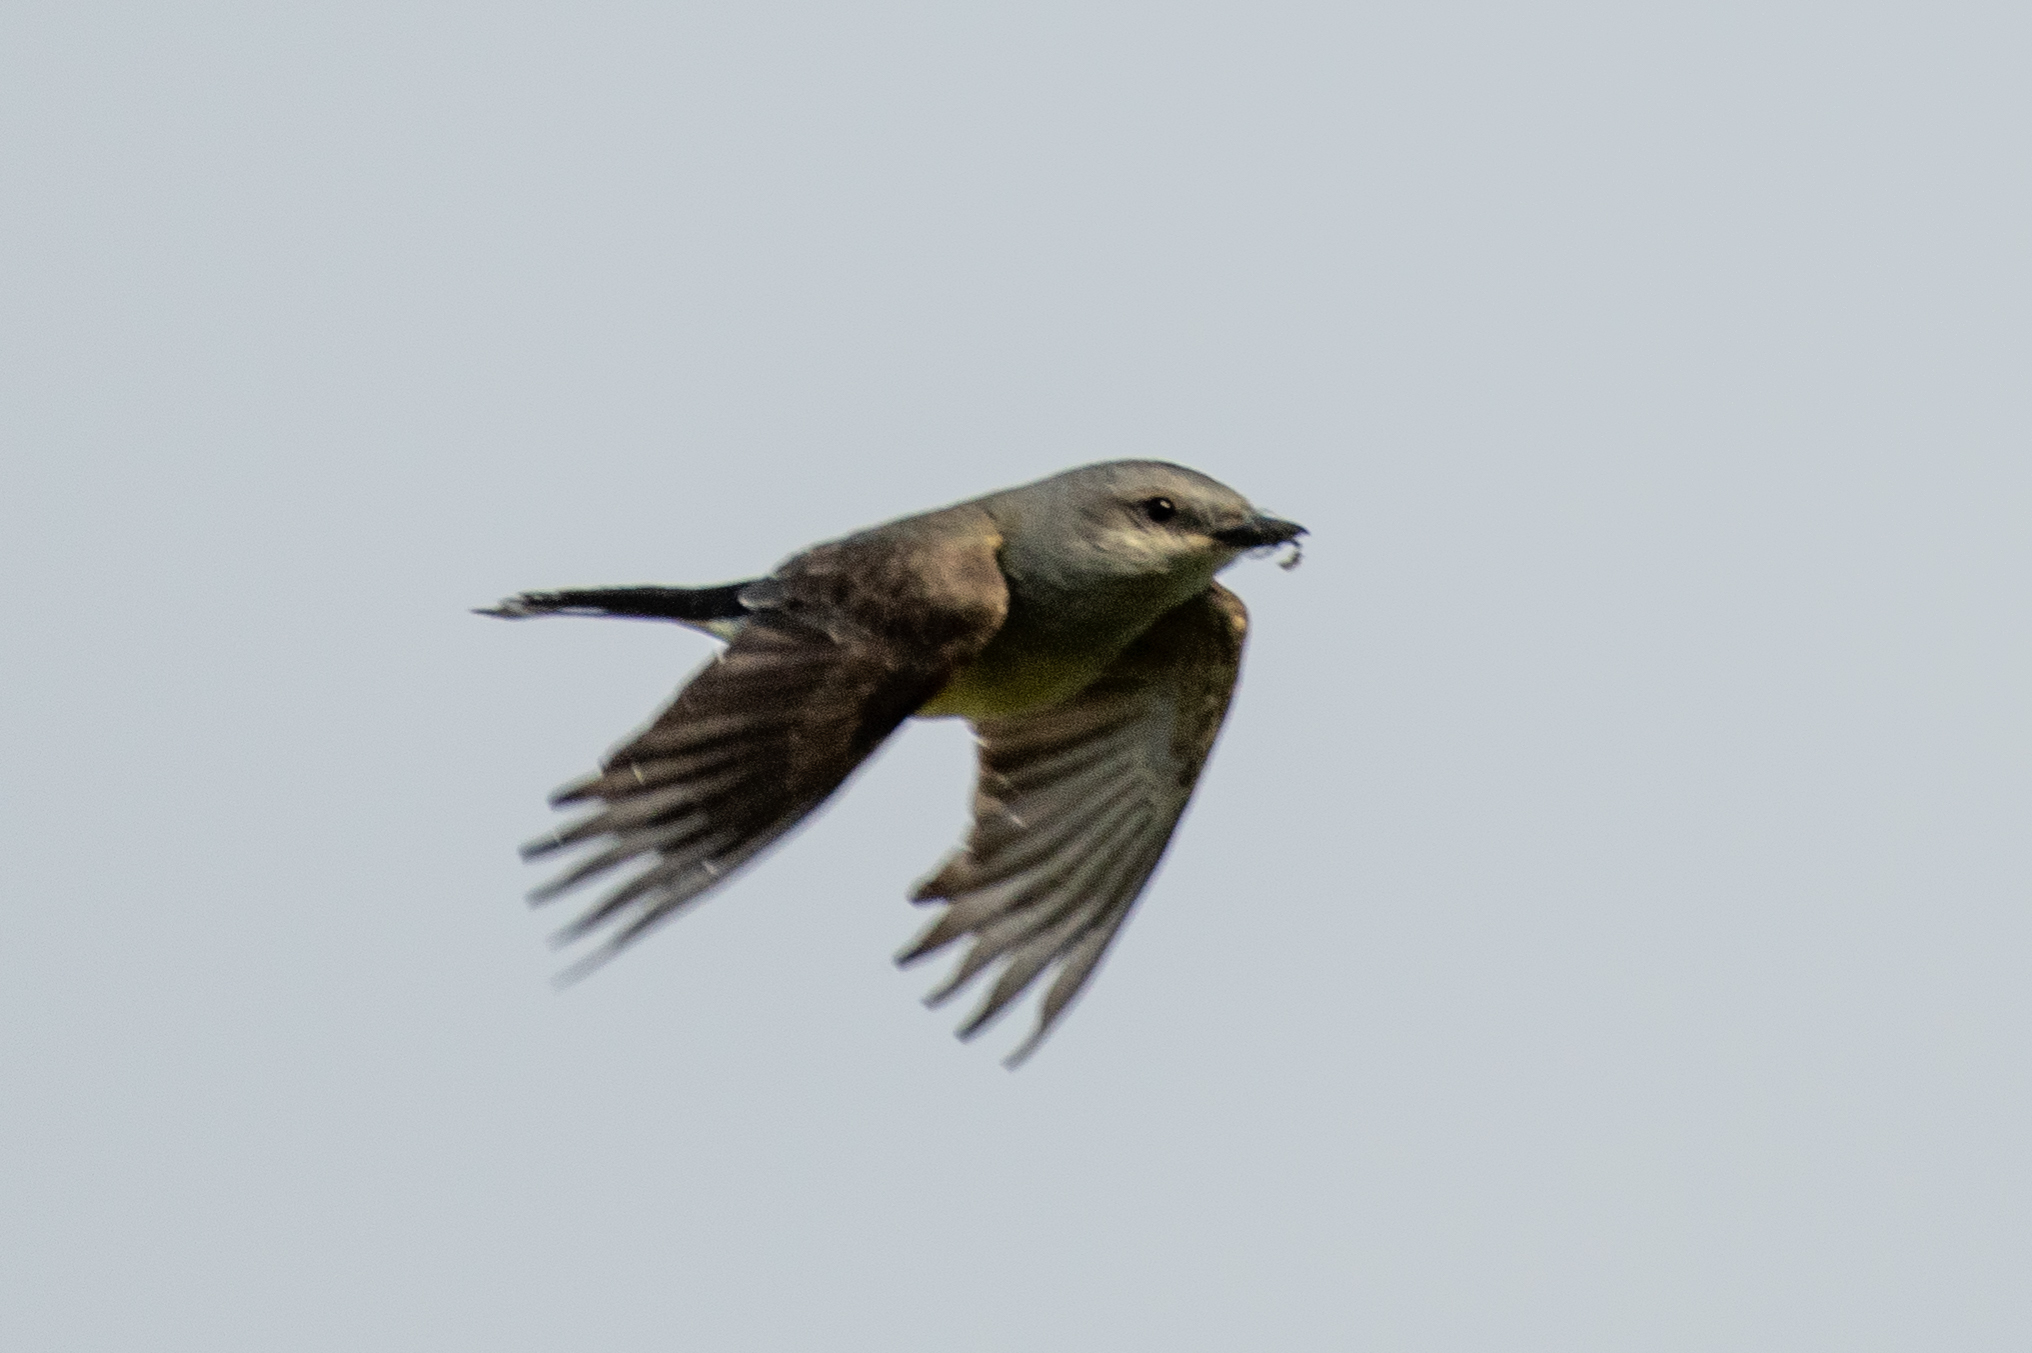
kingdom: Animalia
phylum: Chordata
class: Aves
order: Passeriformes
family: Tyrannidae
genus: Tyrannus
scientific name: Tyrannus verticalis
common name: Western kingbird
